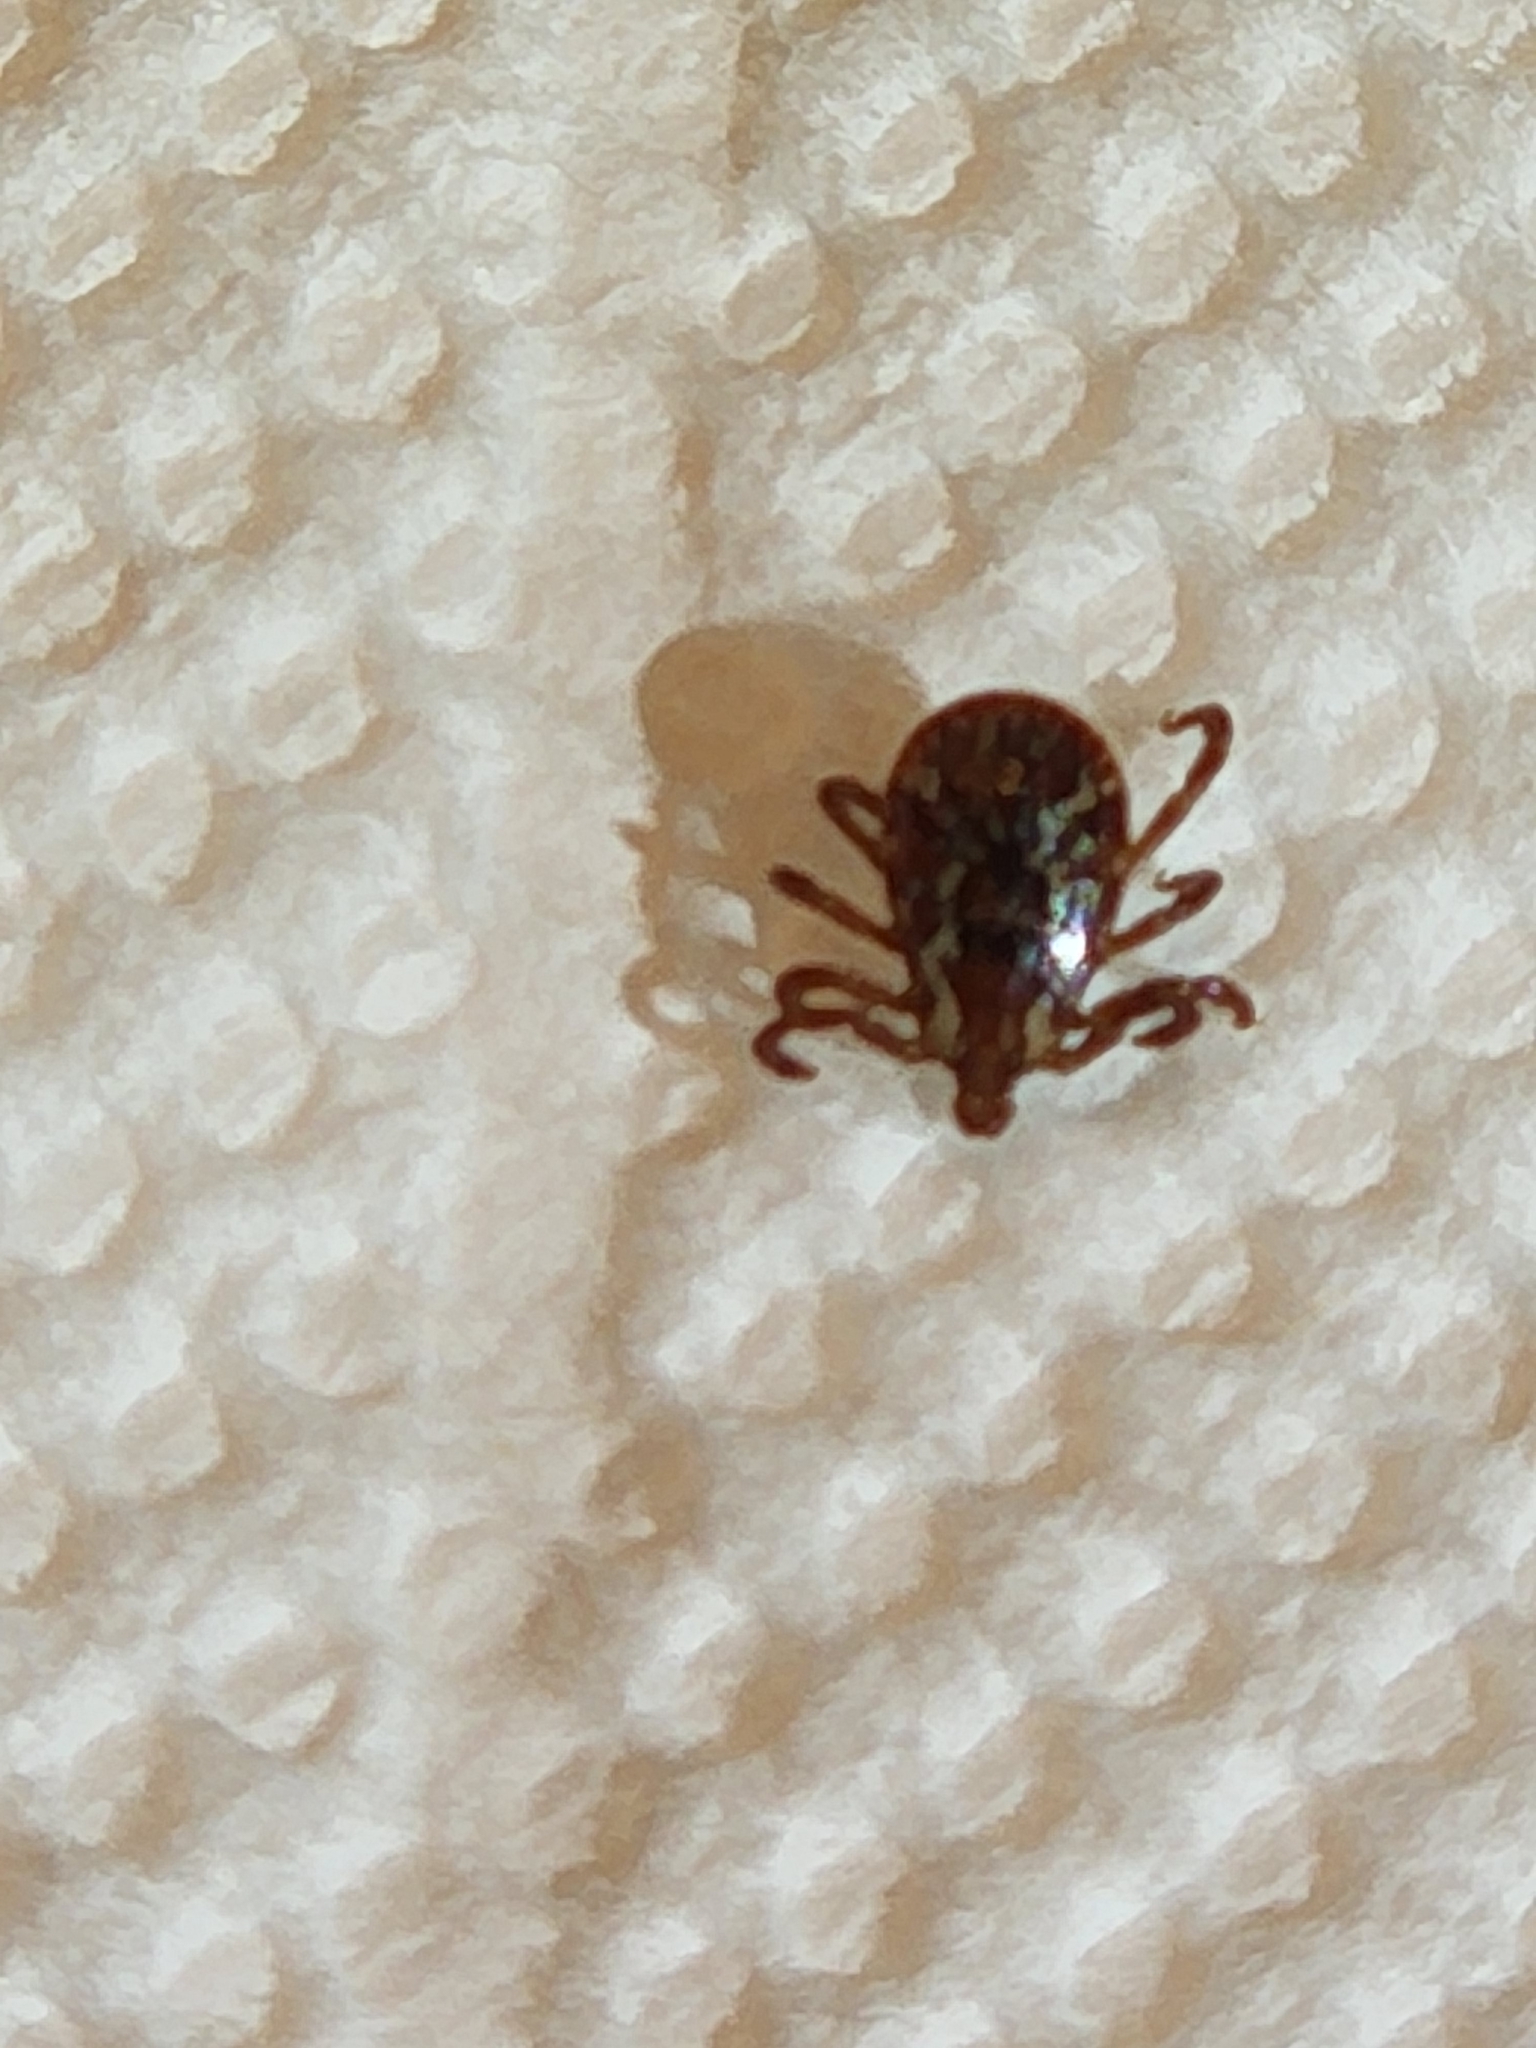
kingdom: Animalia
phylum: Arthropoda
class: Arachnida
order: Ixodida
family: Ixodidae
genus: Dermacentor
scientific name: Dermacentor variabilis
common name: American dog tick
